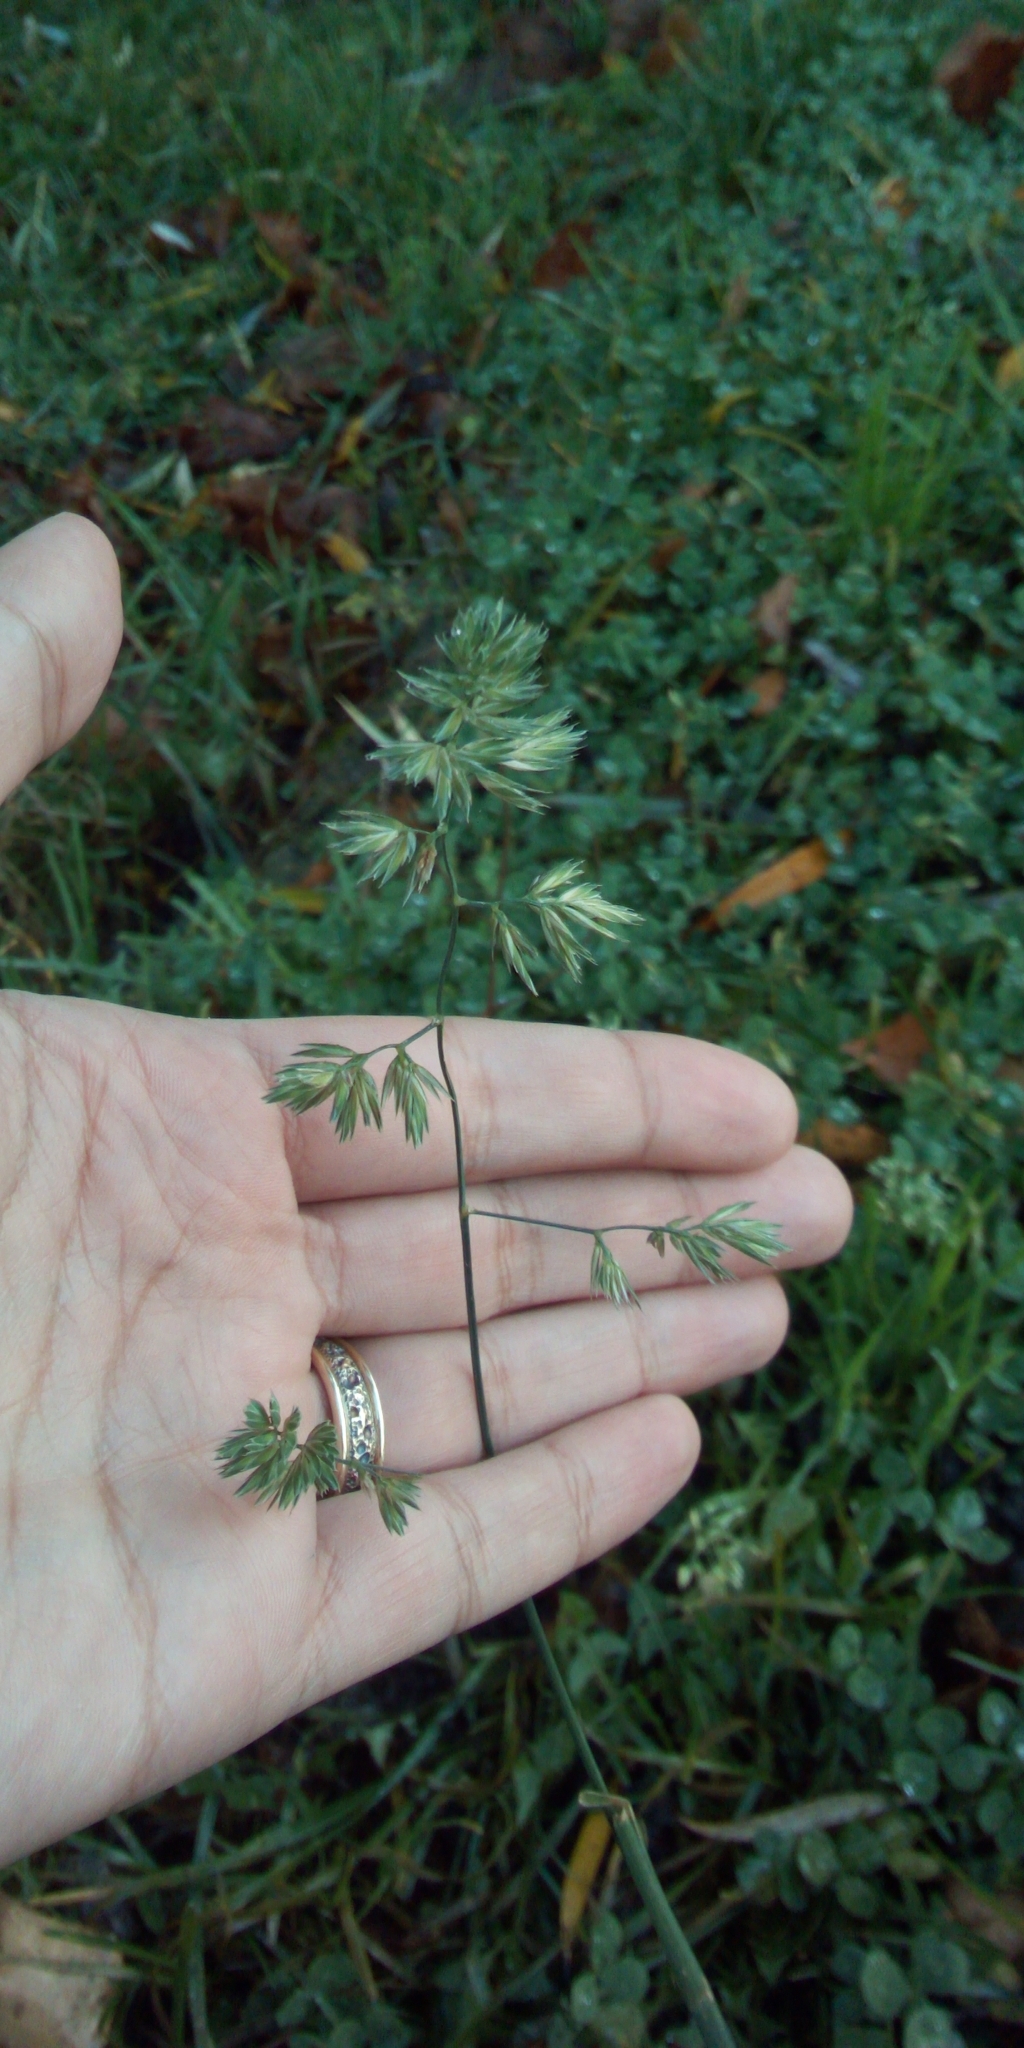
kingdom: Plantae
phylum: Tracheophyta
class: Liliopsida
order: Poales
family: Poaceae
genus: Dactylis
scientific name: Dactylis glomerata
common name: Orchardgrass
